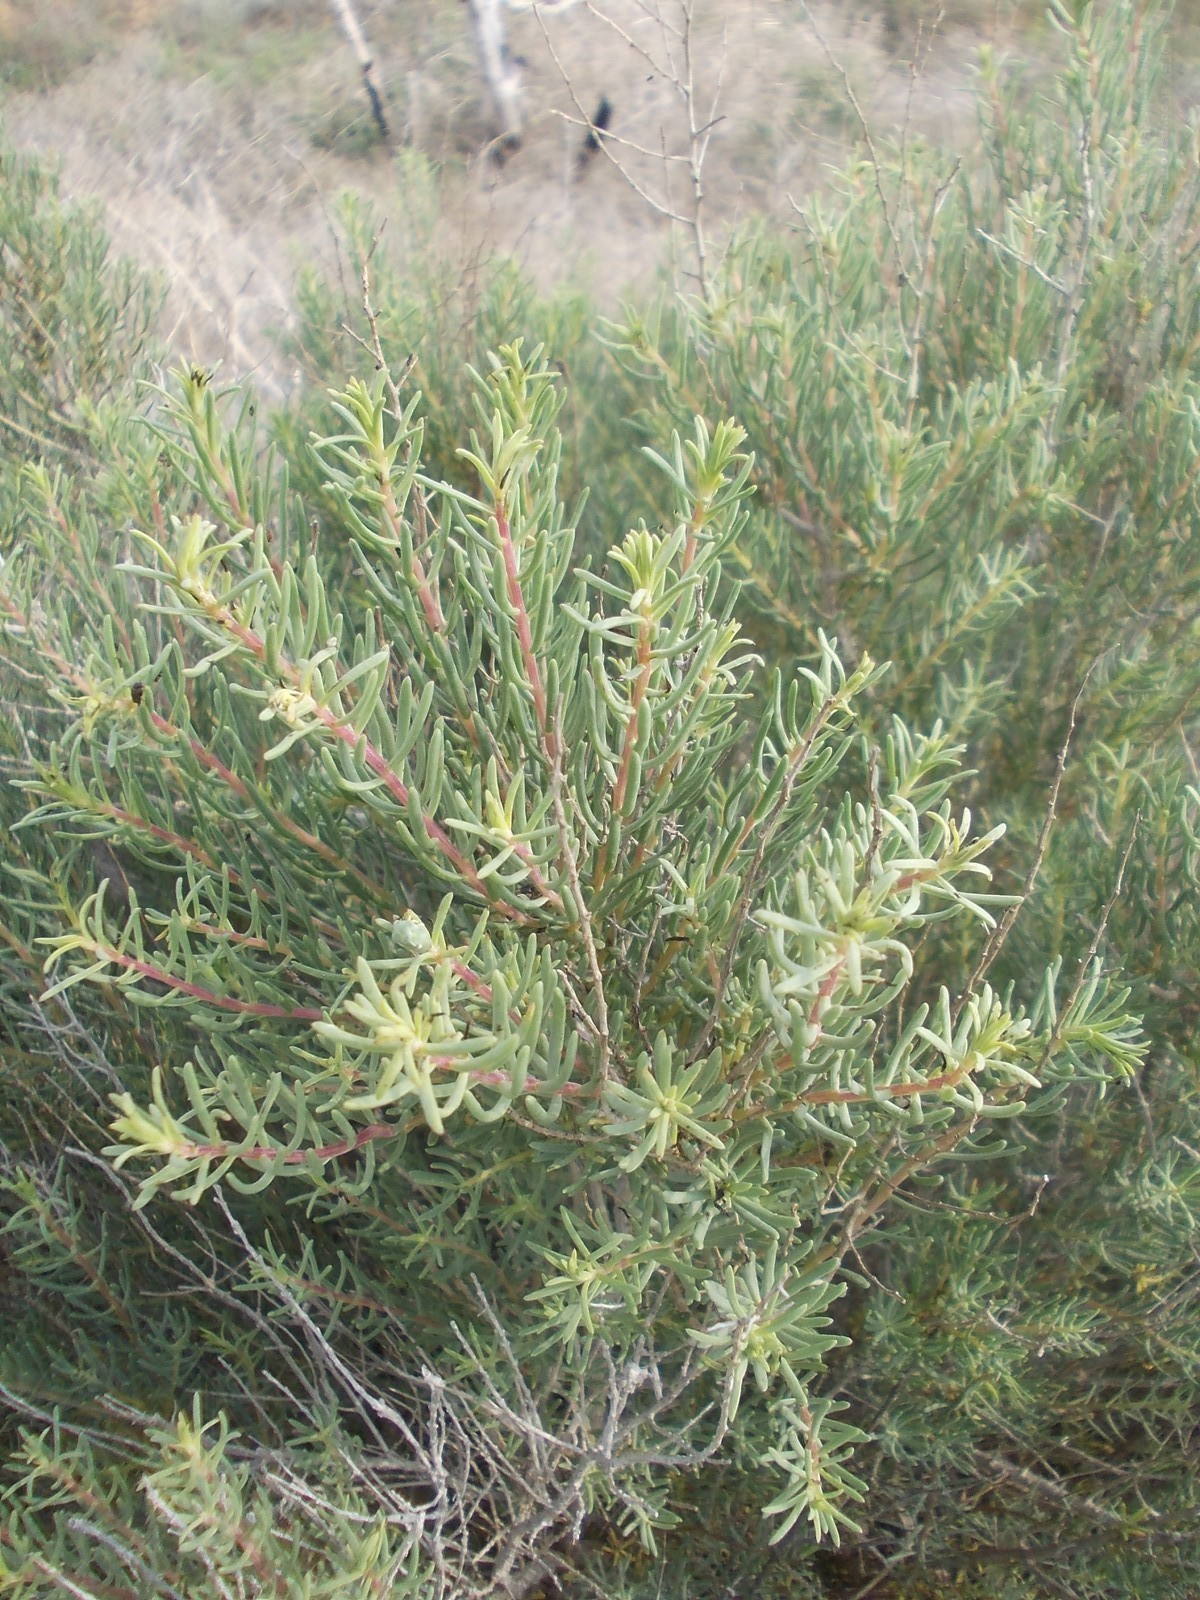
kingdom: Plantae
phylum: Tracheophyta
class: Magnoliopsida
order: Caryophyllales
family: Amaranthaceae
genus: Suaeda
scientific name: Suaeda physophora
